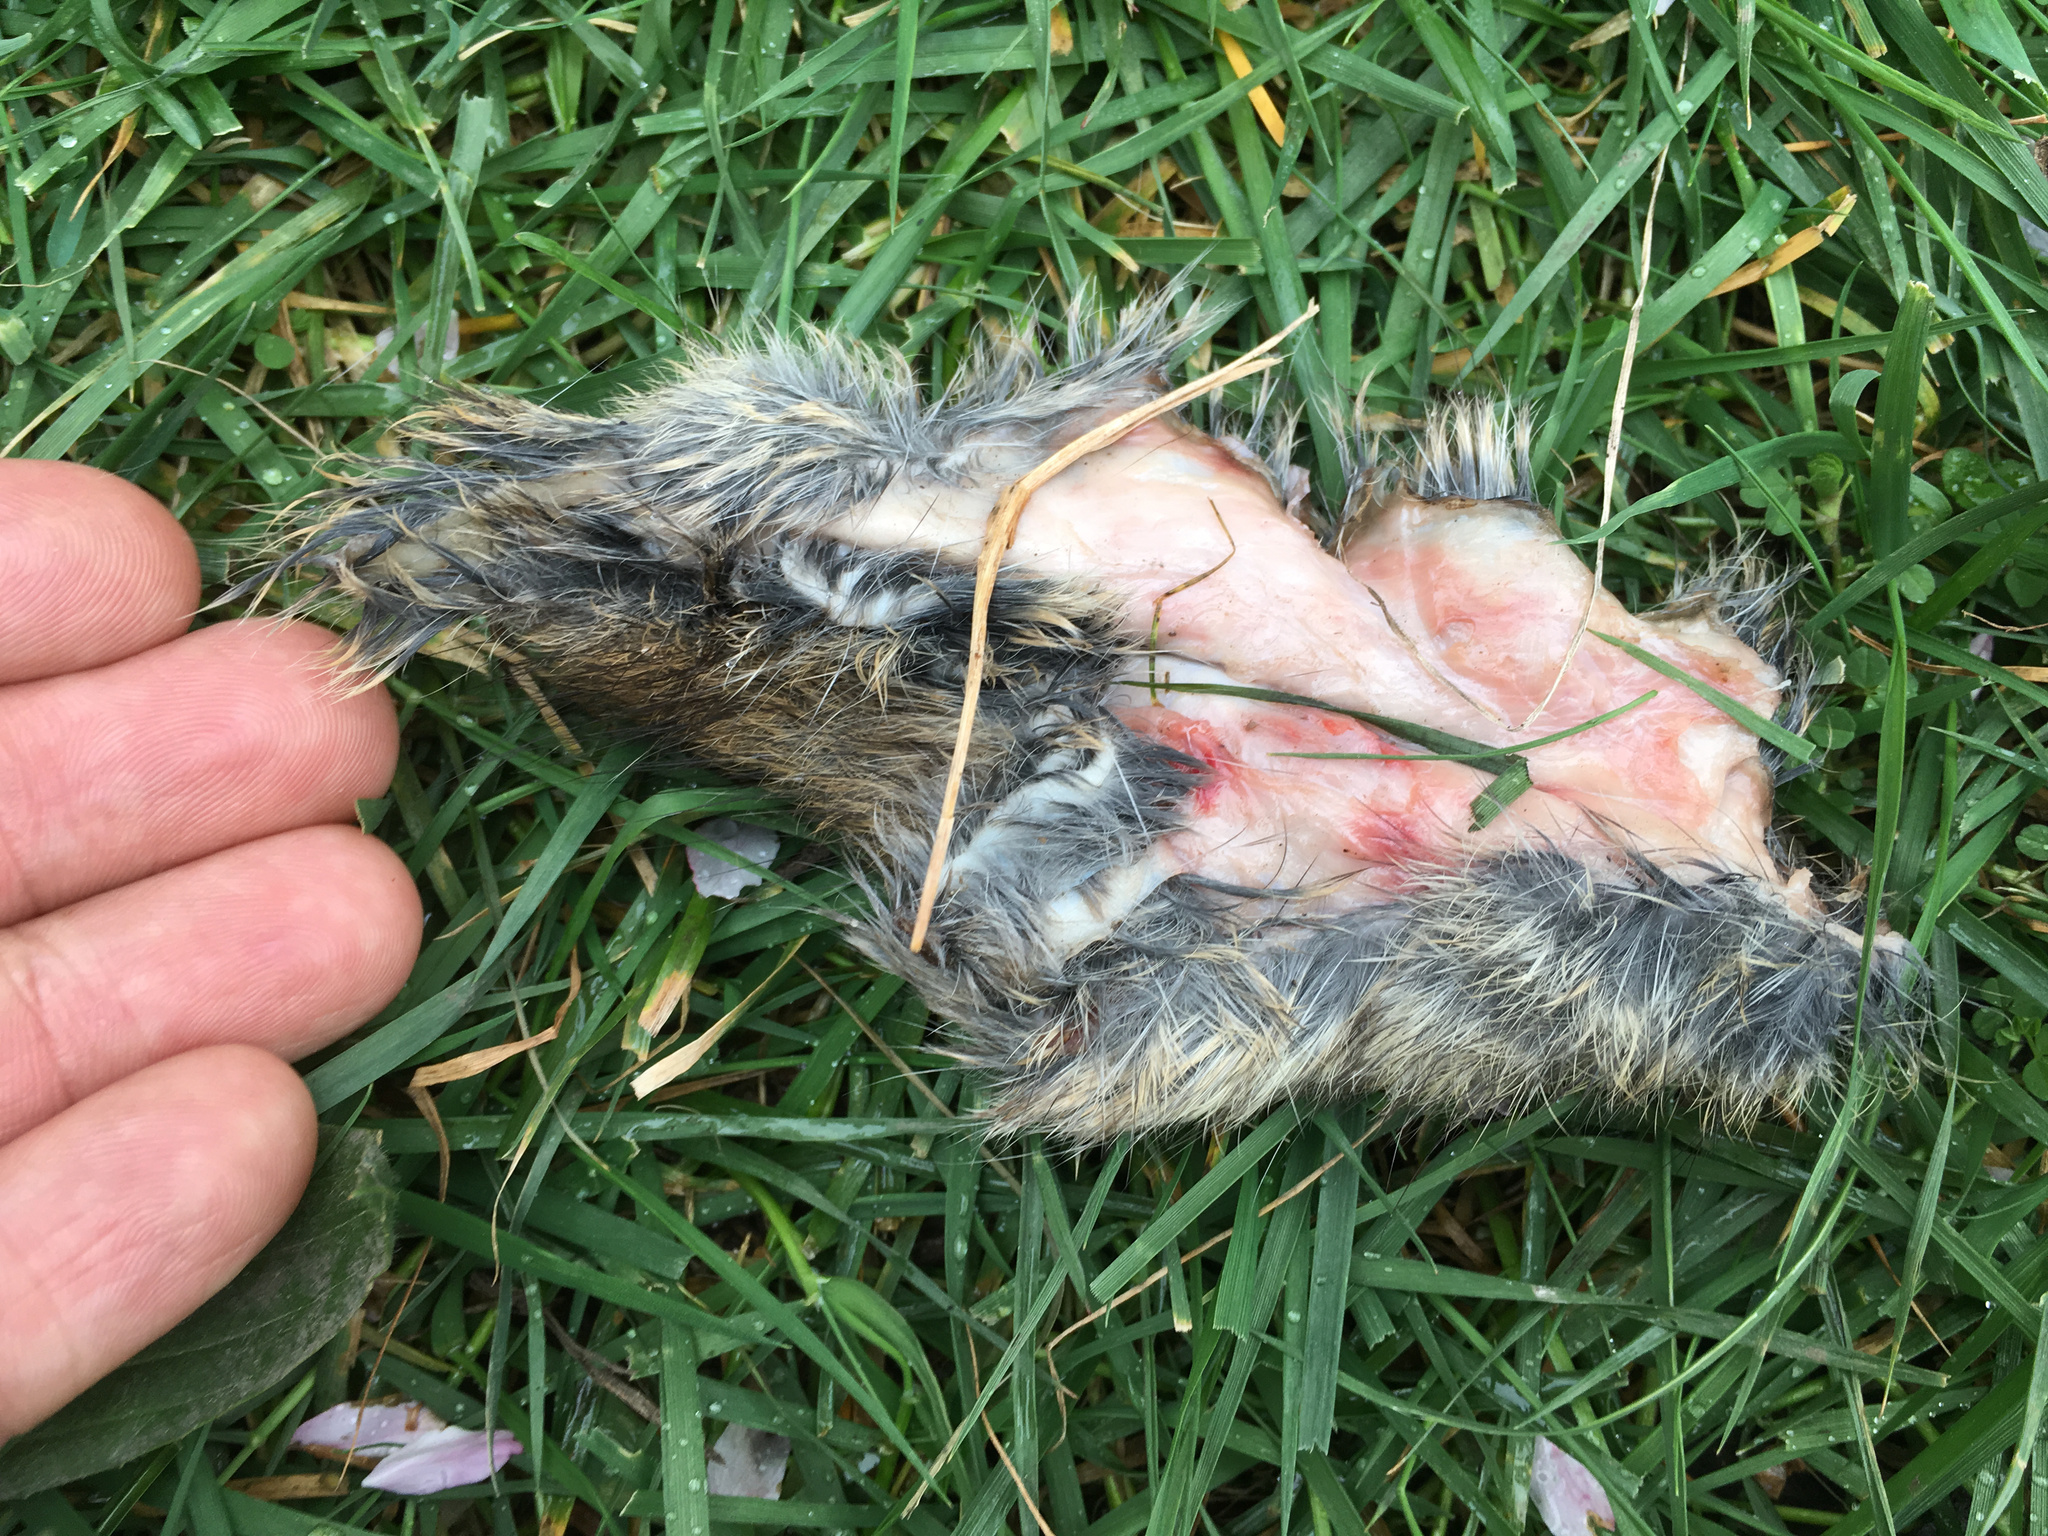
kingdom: Animalia
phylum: Chordata
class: Mammalia
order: Lagomorpha
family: Leporidae
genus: Oryctolagus
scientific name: Oryctolagus cuniculus
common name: European rabbit
